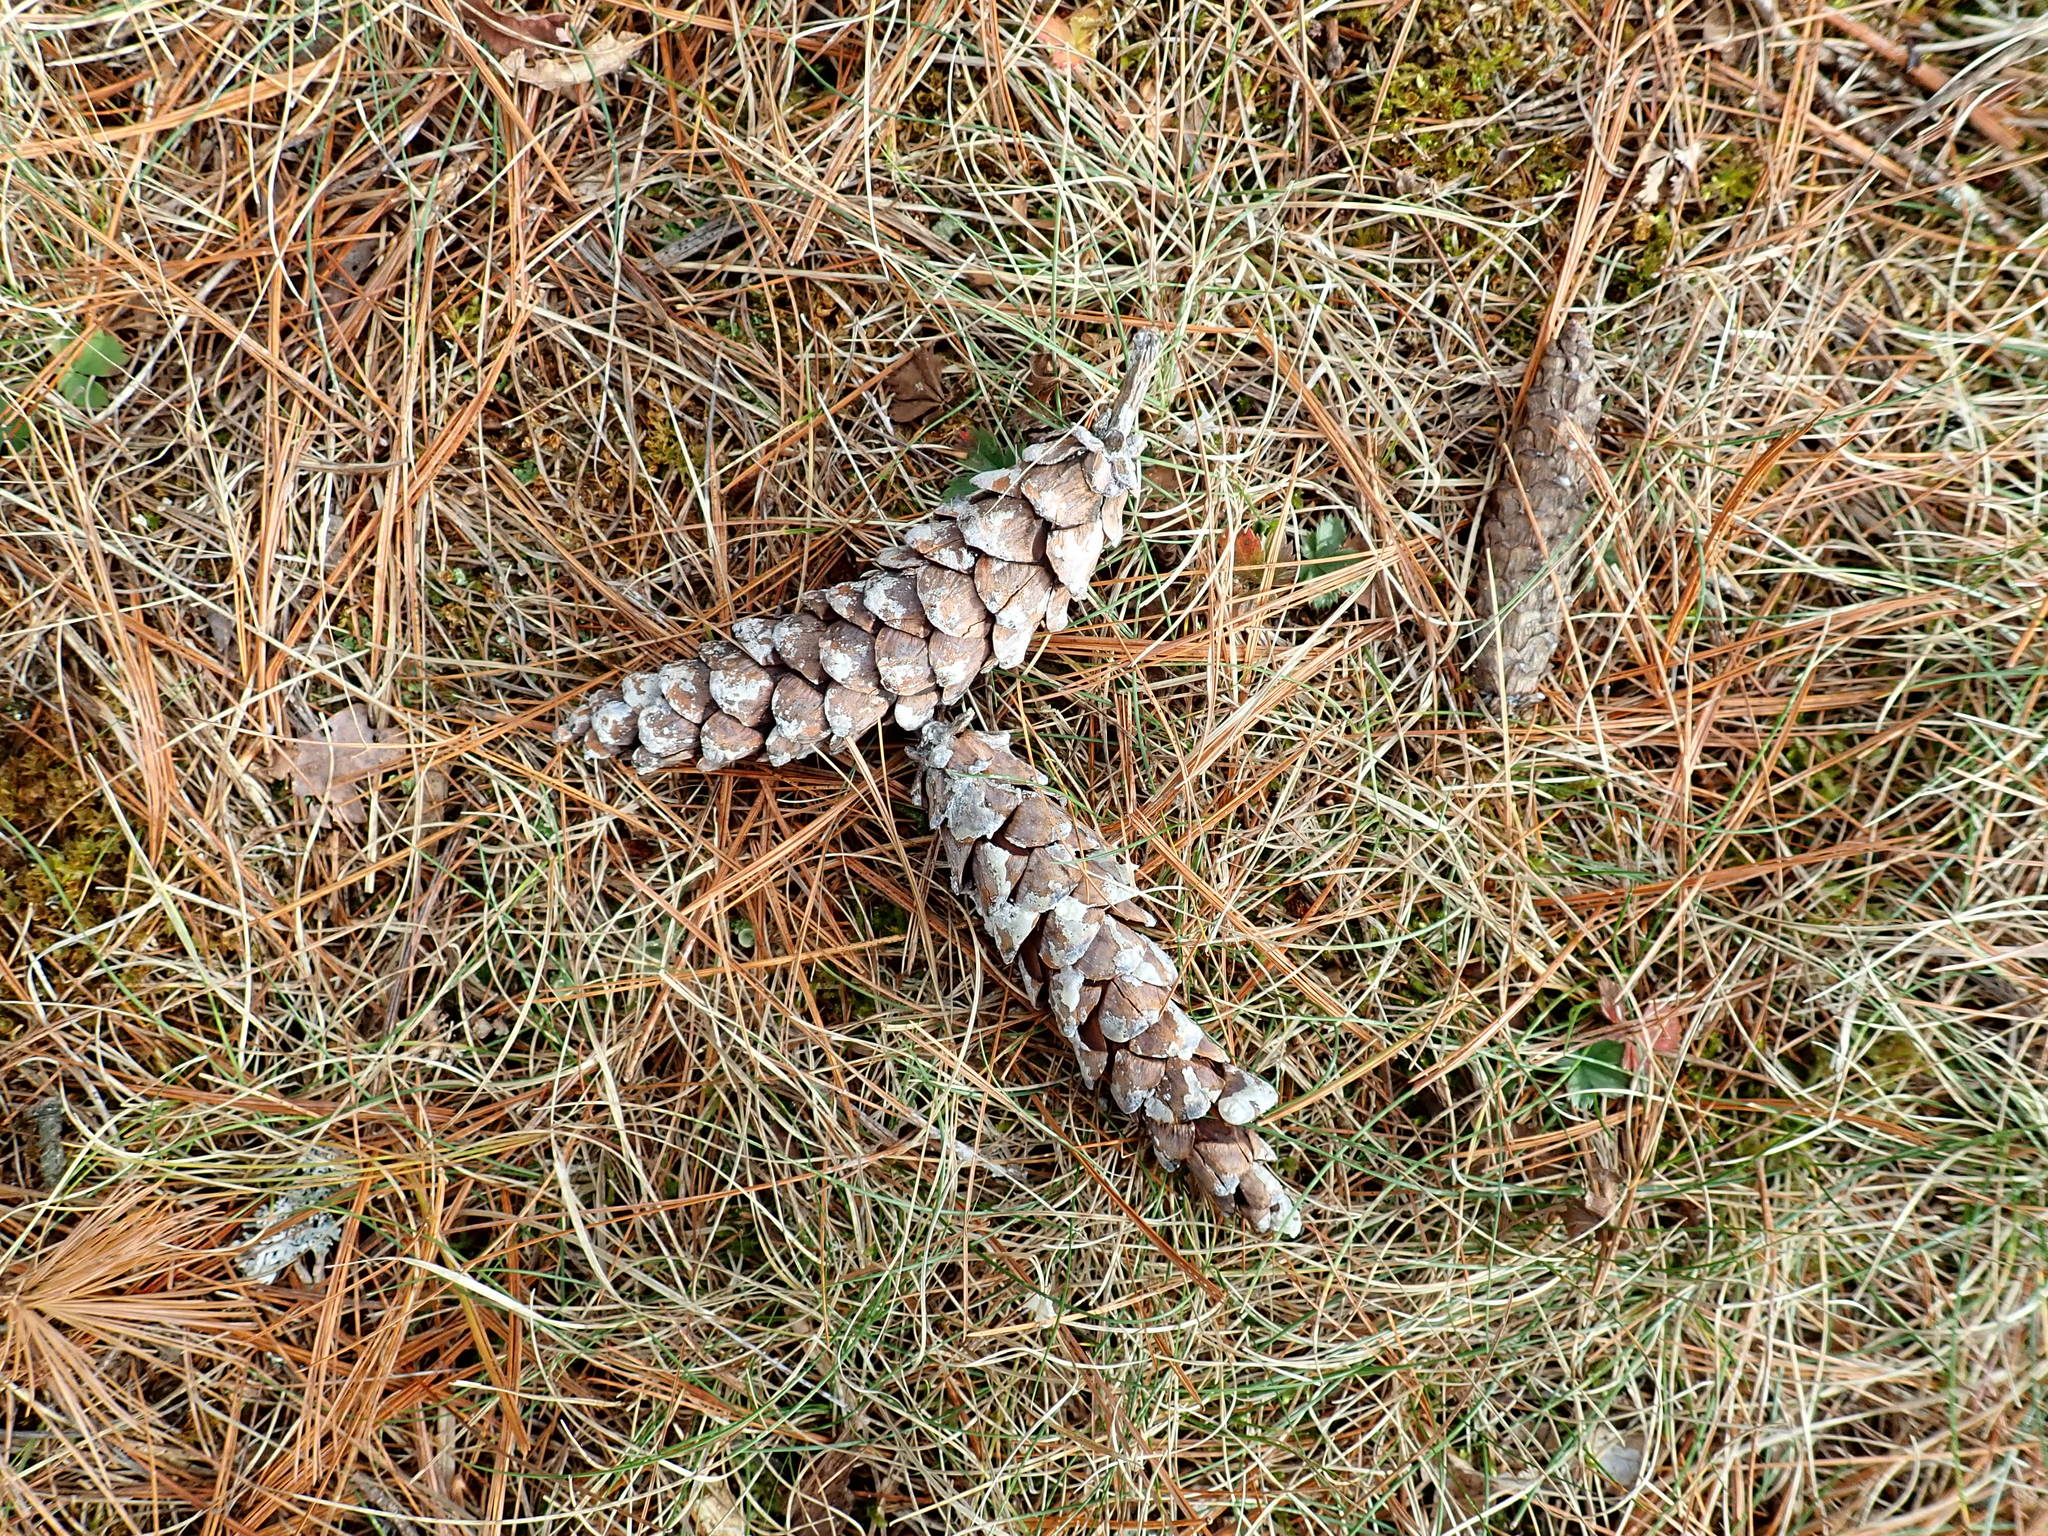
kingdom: Plantae
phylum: Tracheophyta
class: Pinopsida
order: Pinales
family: Pinaceae
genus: Pinus
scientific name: Pinus strobus
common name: Weymouth pine
